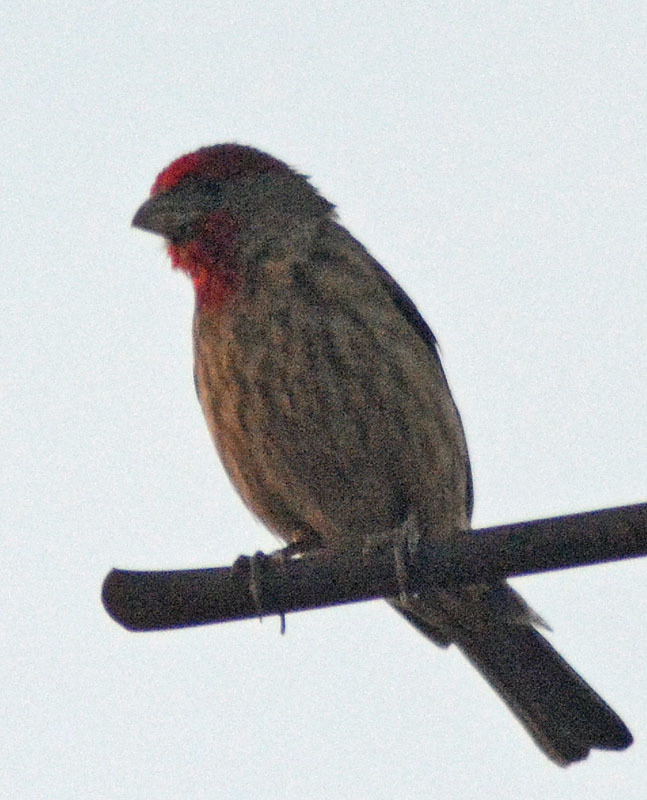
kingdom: Animalia
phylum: Chordata
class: Aves
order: Passeriformes
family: Fringillidae
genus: Haemorhous
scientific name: Haemorhous mexicanus
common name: House finch
